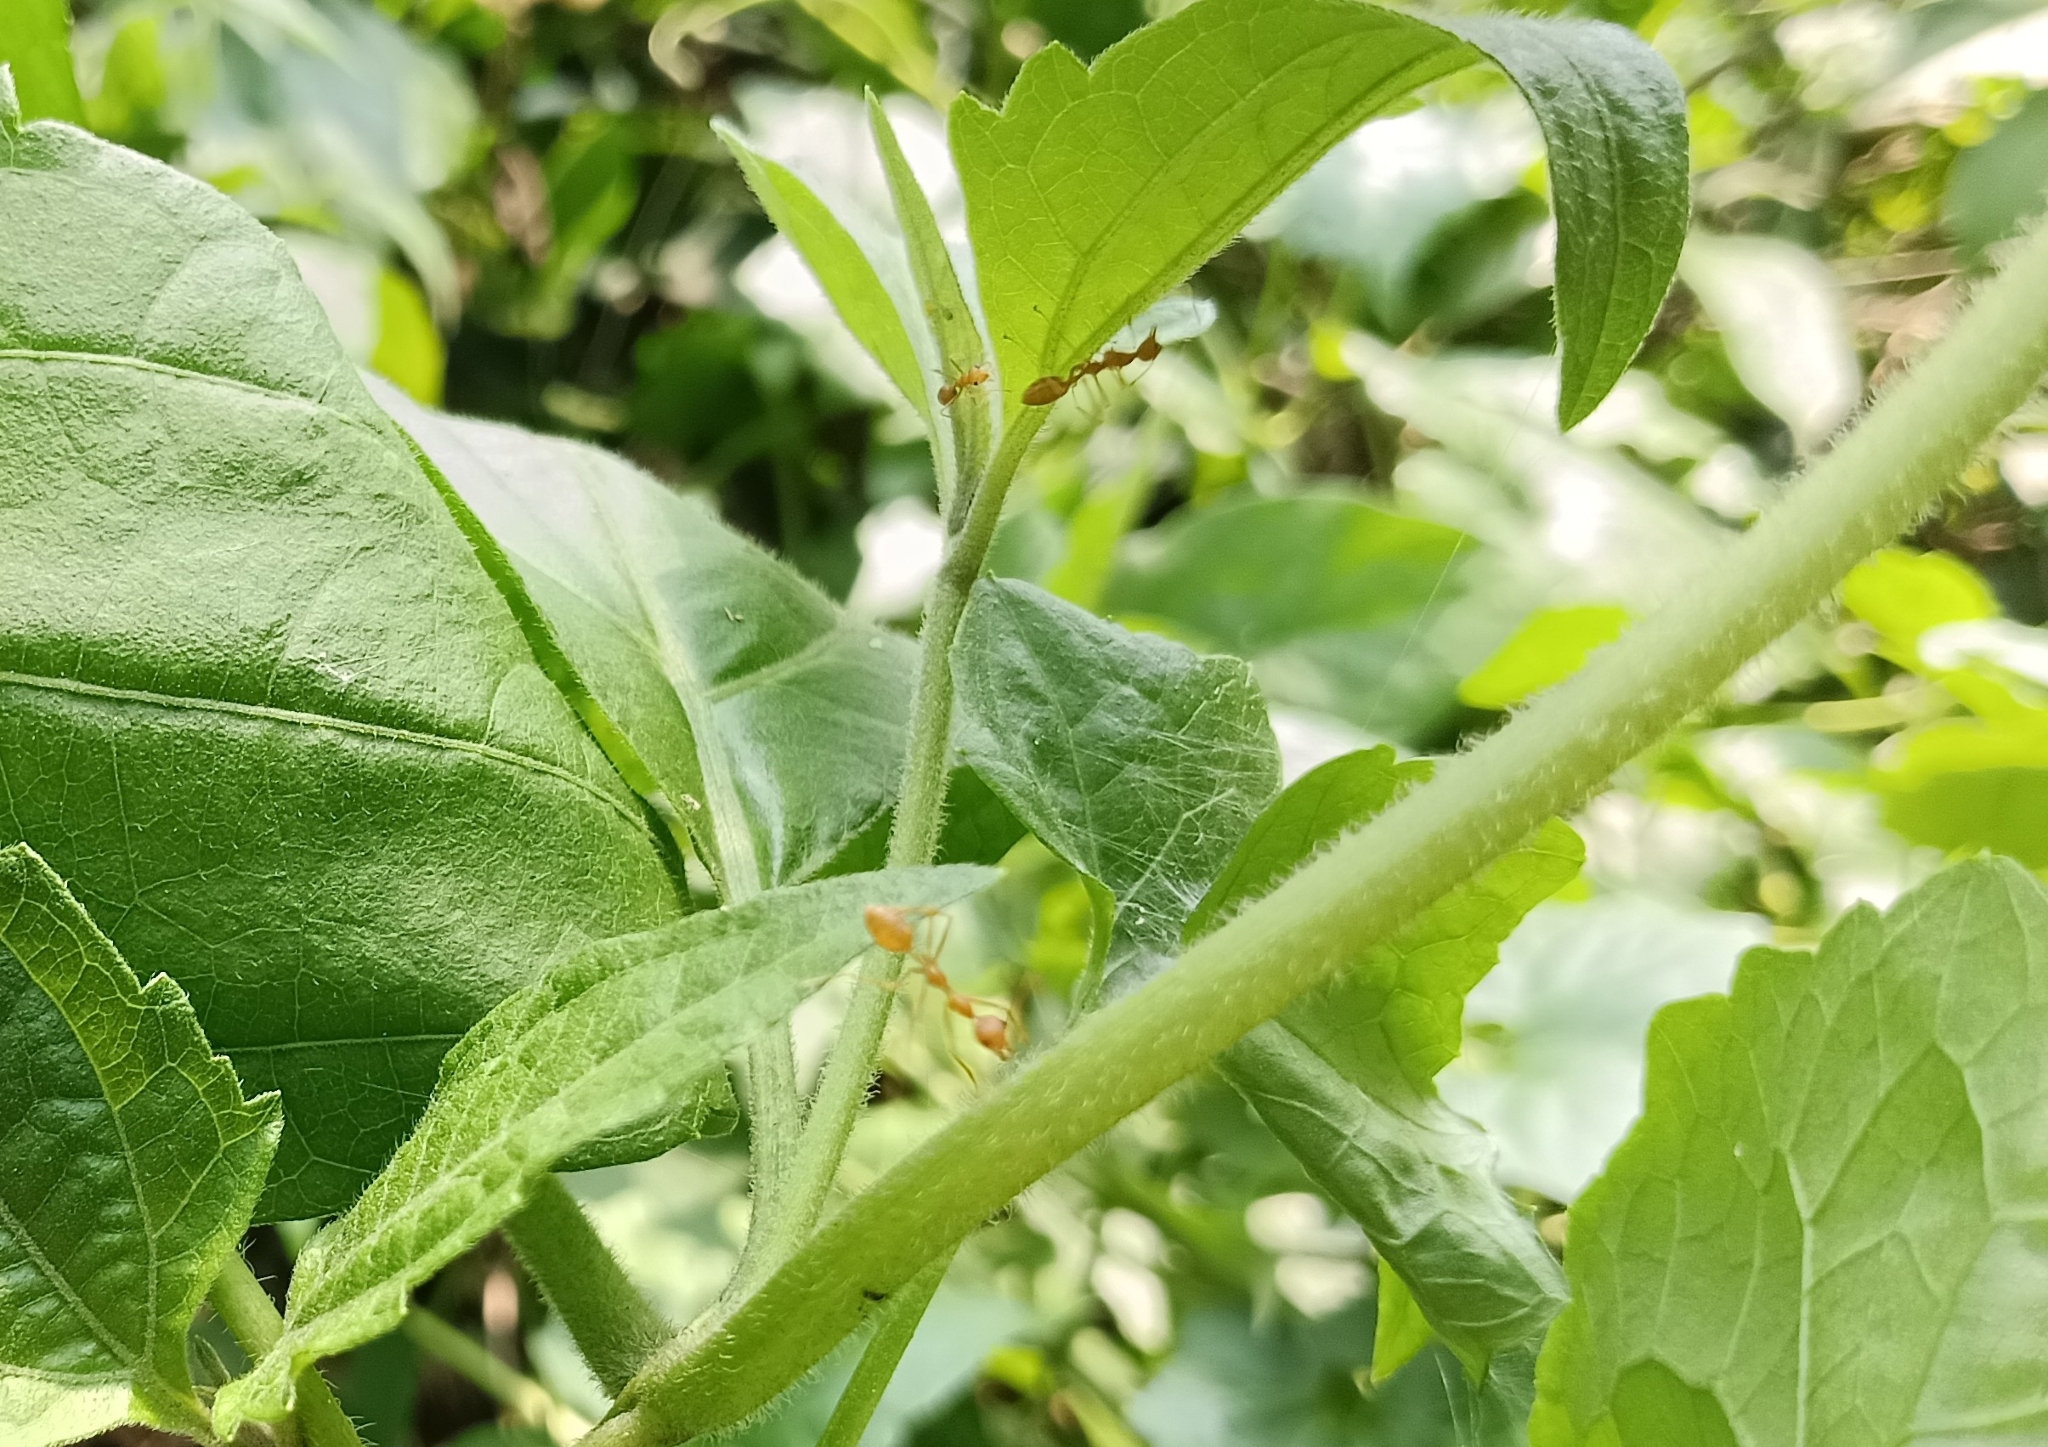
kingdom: Animalia
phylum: Arthropoda
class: Insecta
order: Hymenoptera
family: Formicidae
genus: Oecophylla
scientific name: Oecophylla smaragdina
